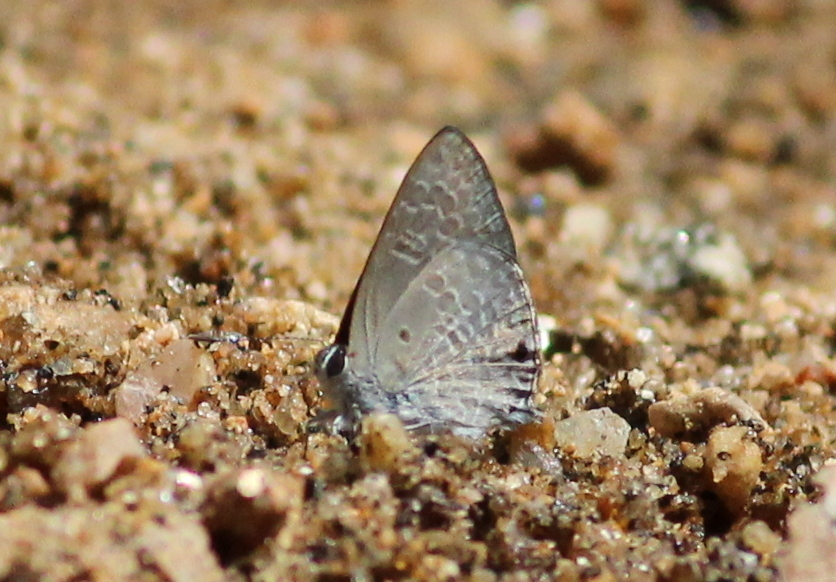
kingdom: Animalia
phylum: Arthropoda
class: Insecta
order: Lepidoptera
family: Lycaenidae
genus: Anthene
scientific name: Anthene lycaenina
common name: Pointed ciliate blue
